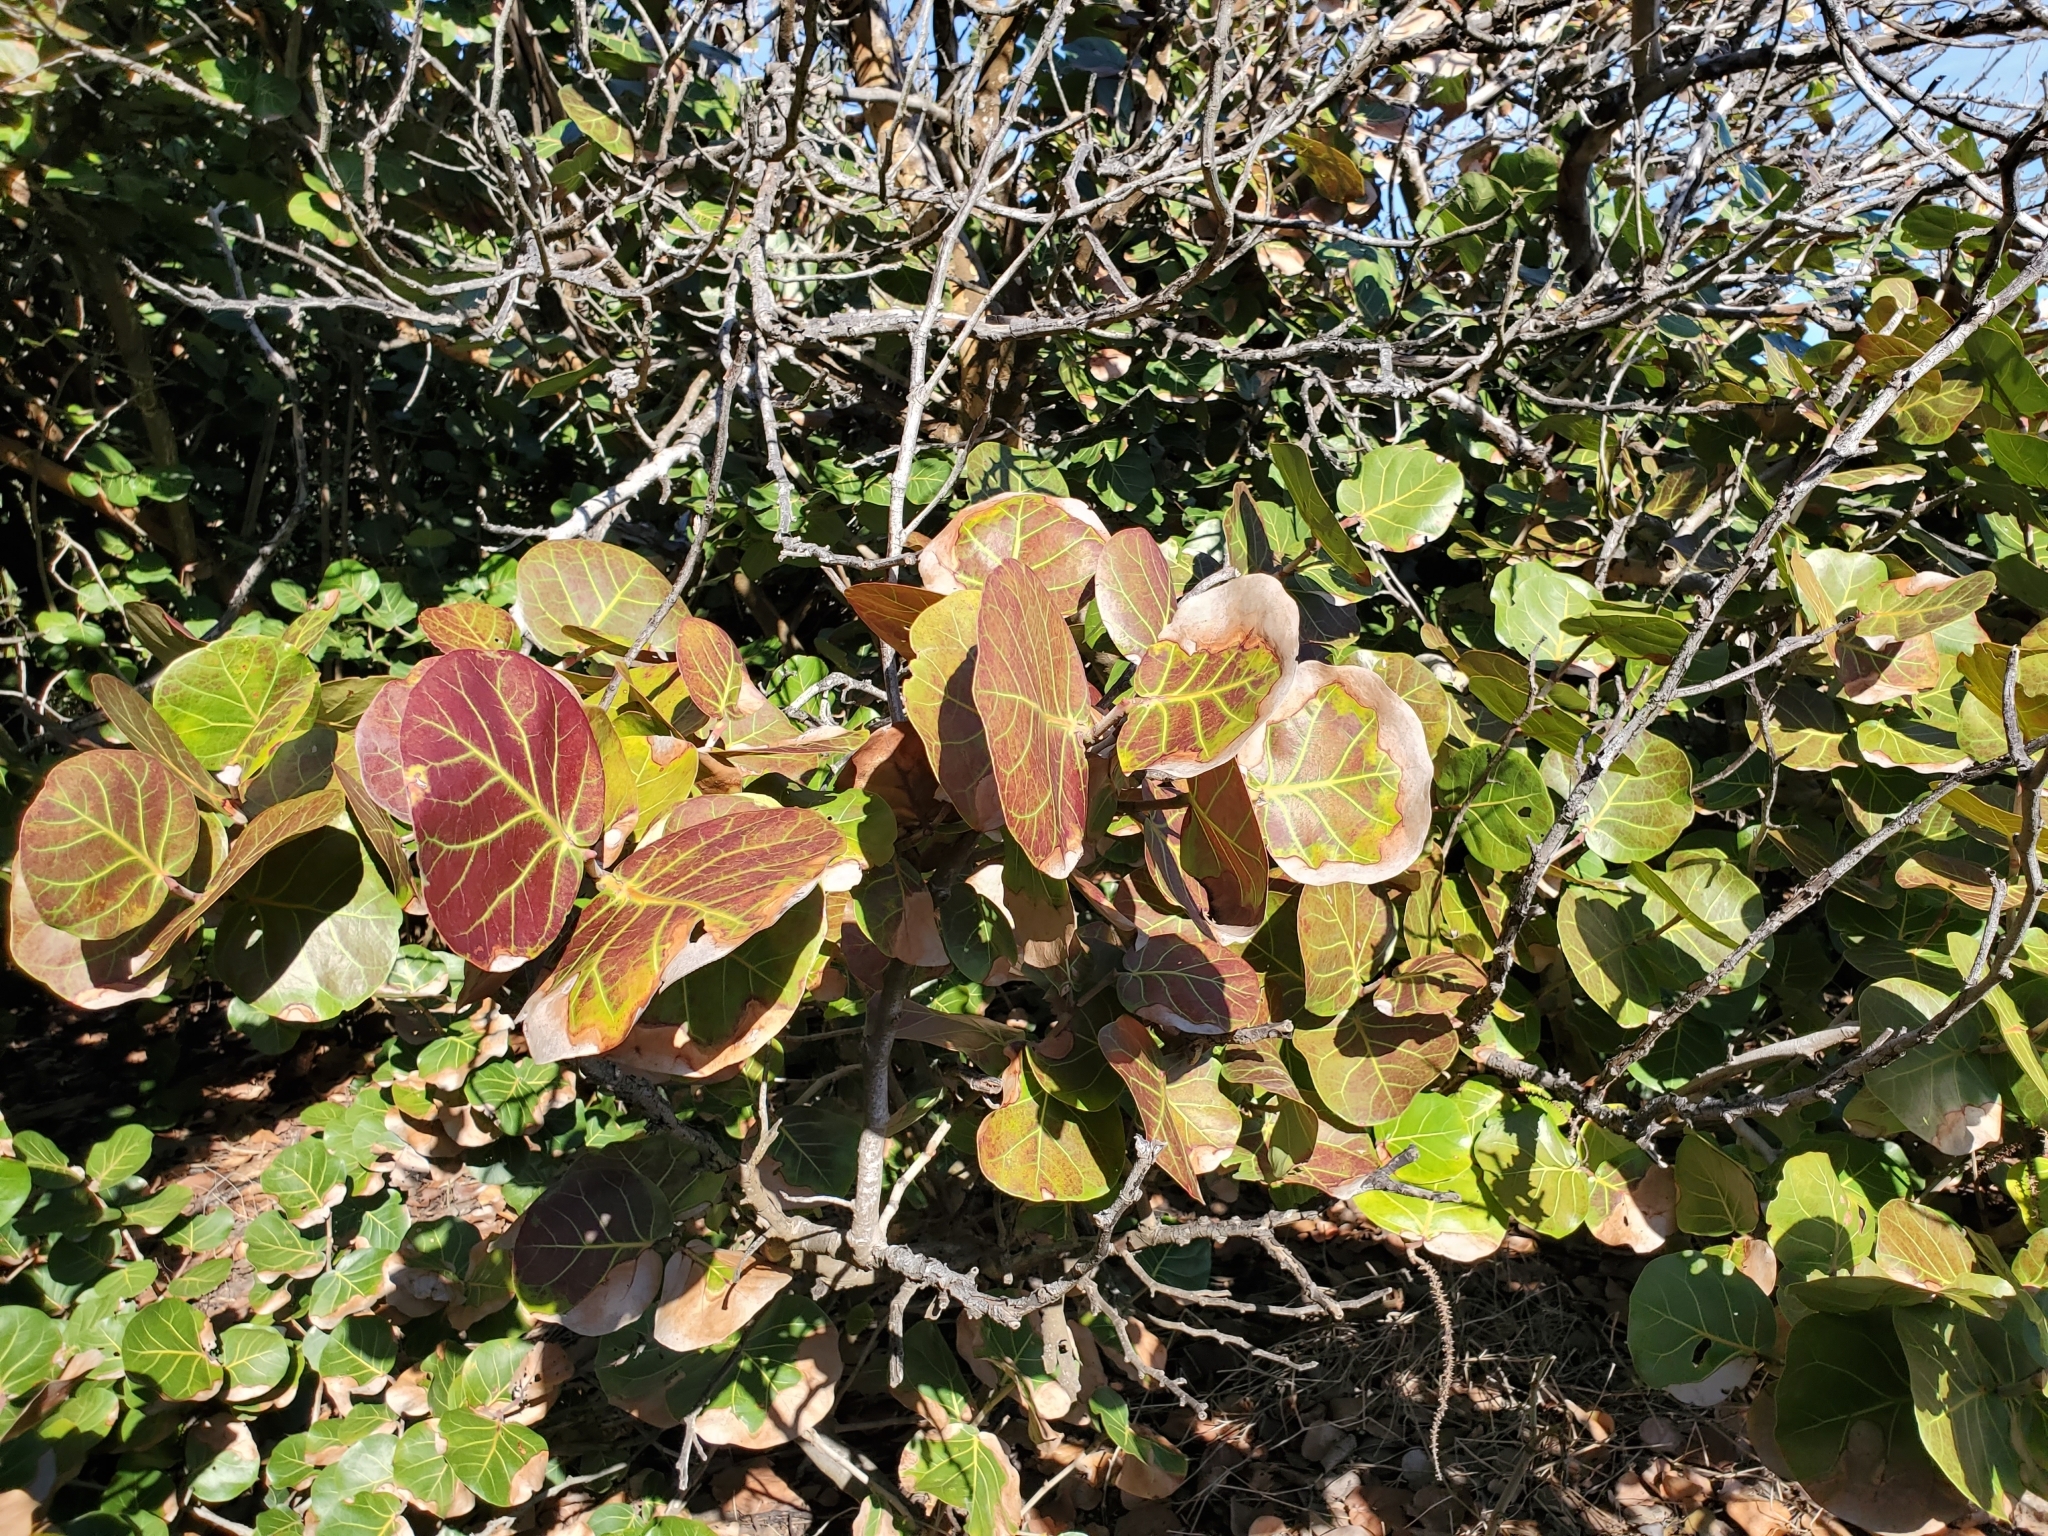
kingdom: Plantae
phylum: Tracheophyta
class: Magnoliopsida
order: Caryophyllales
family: Polygonaceae
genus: Coccoloba
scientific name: Coccoloba uvifera
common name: Seagrape
